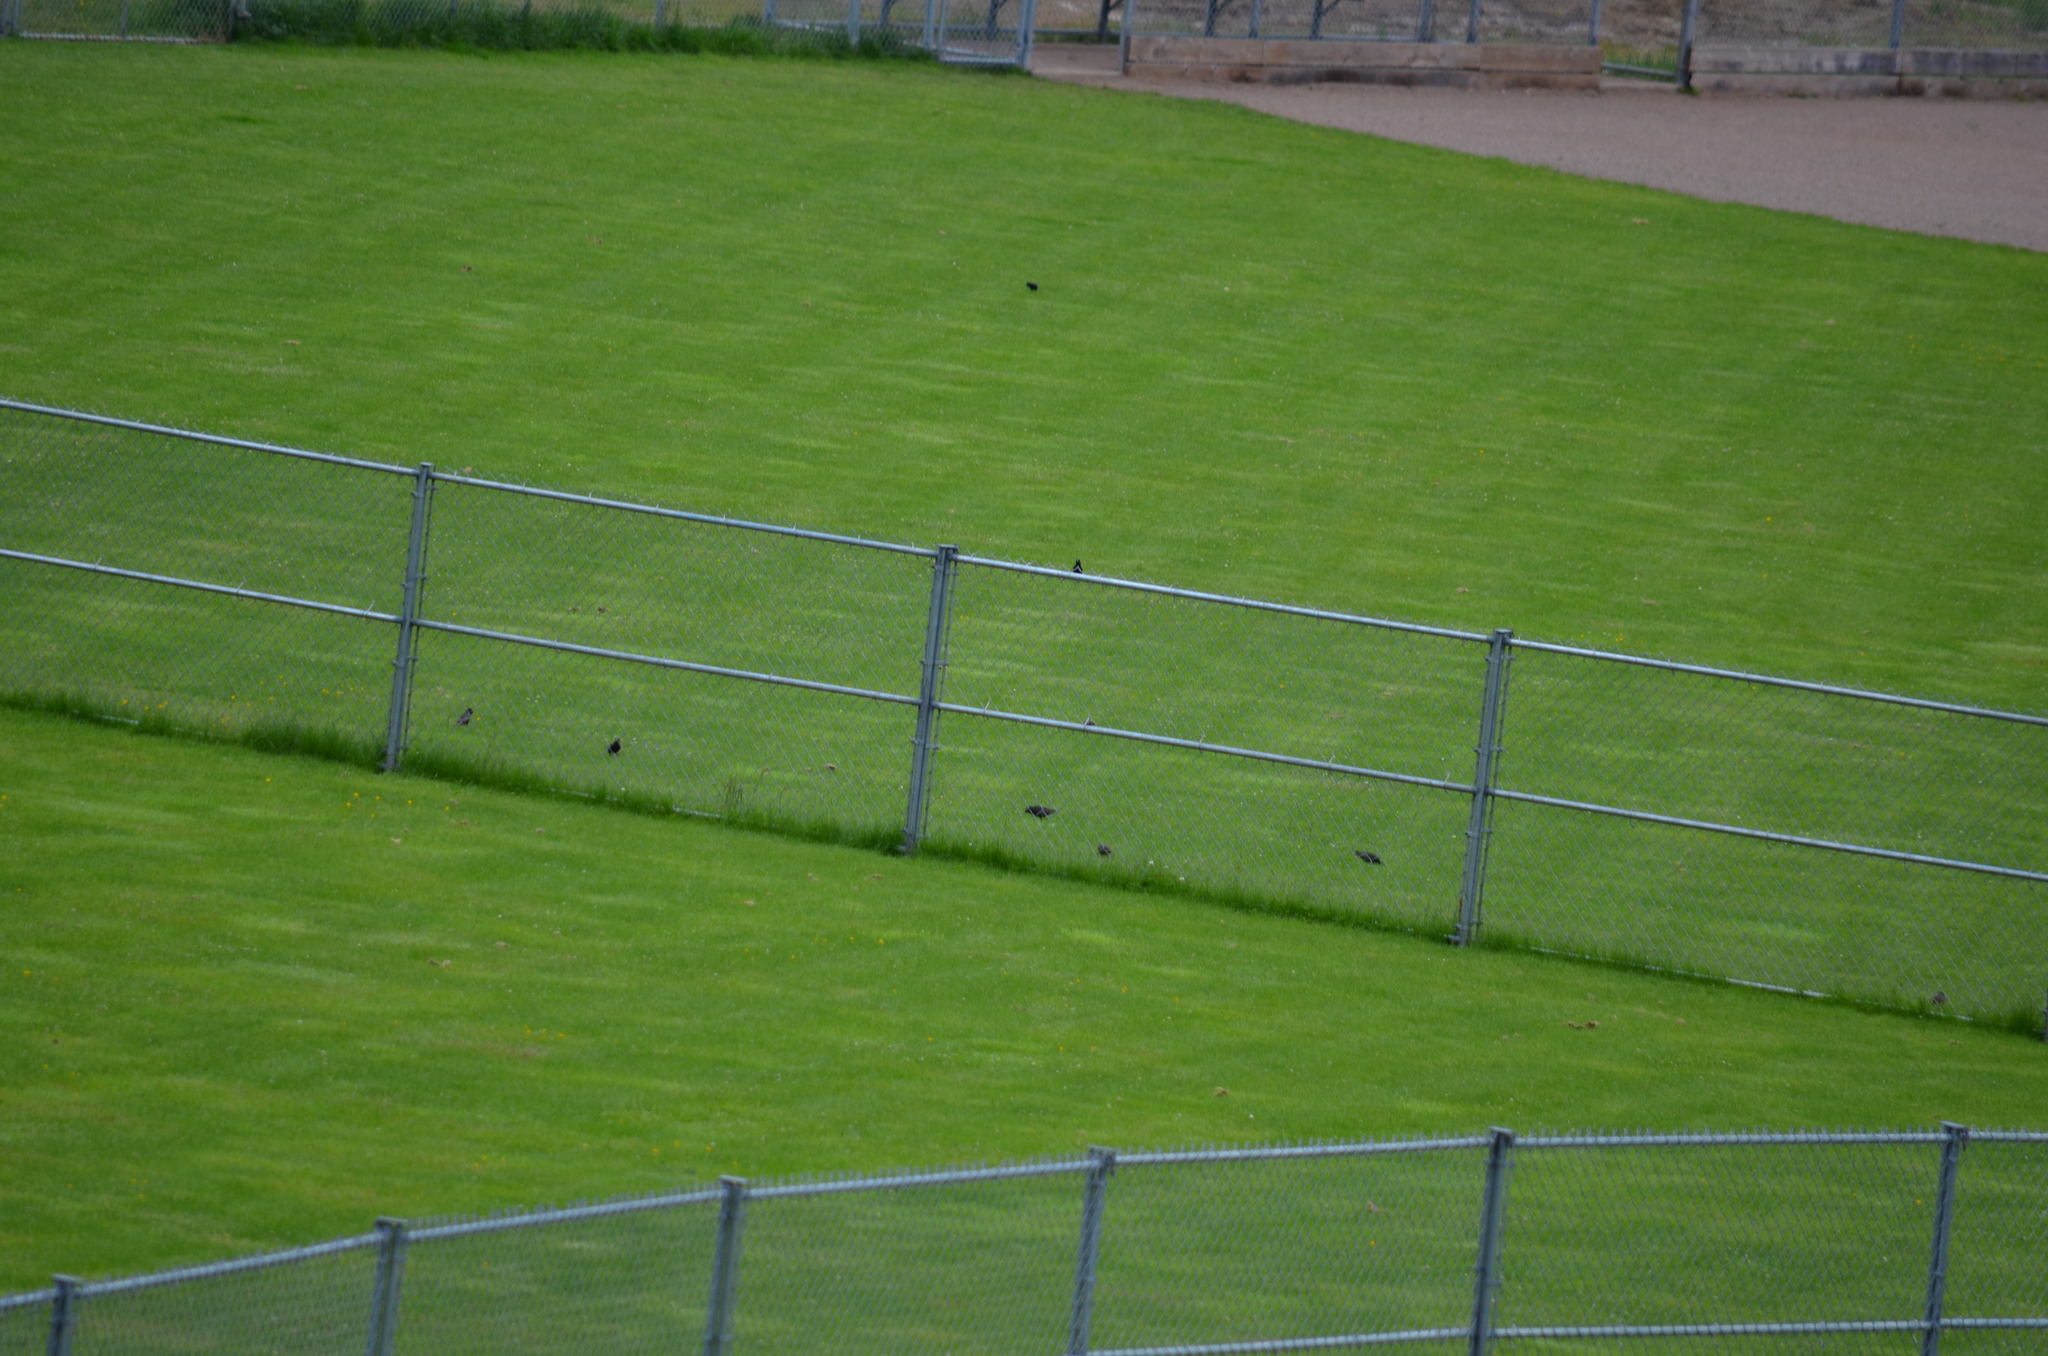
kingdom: Animalia
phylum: Chordata
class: Aves
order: Passeriformes
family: Sturnidae
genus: Sturnus
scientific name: Sturnus vulgaris
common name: Common starling
